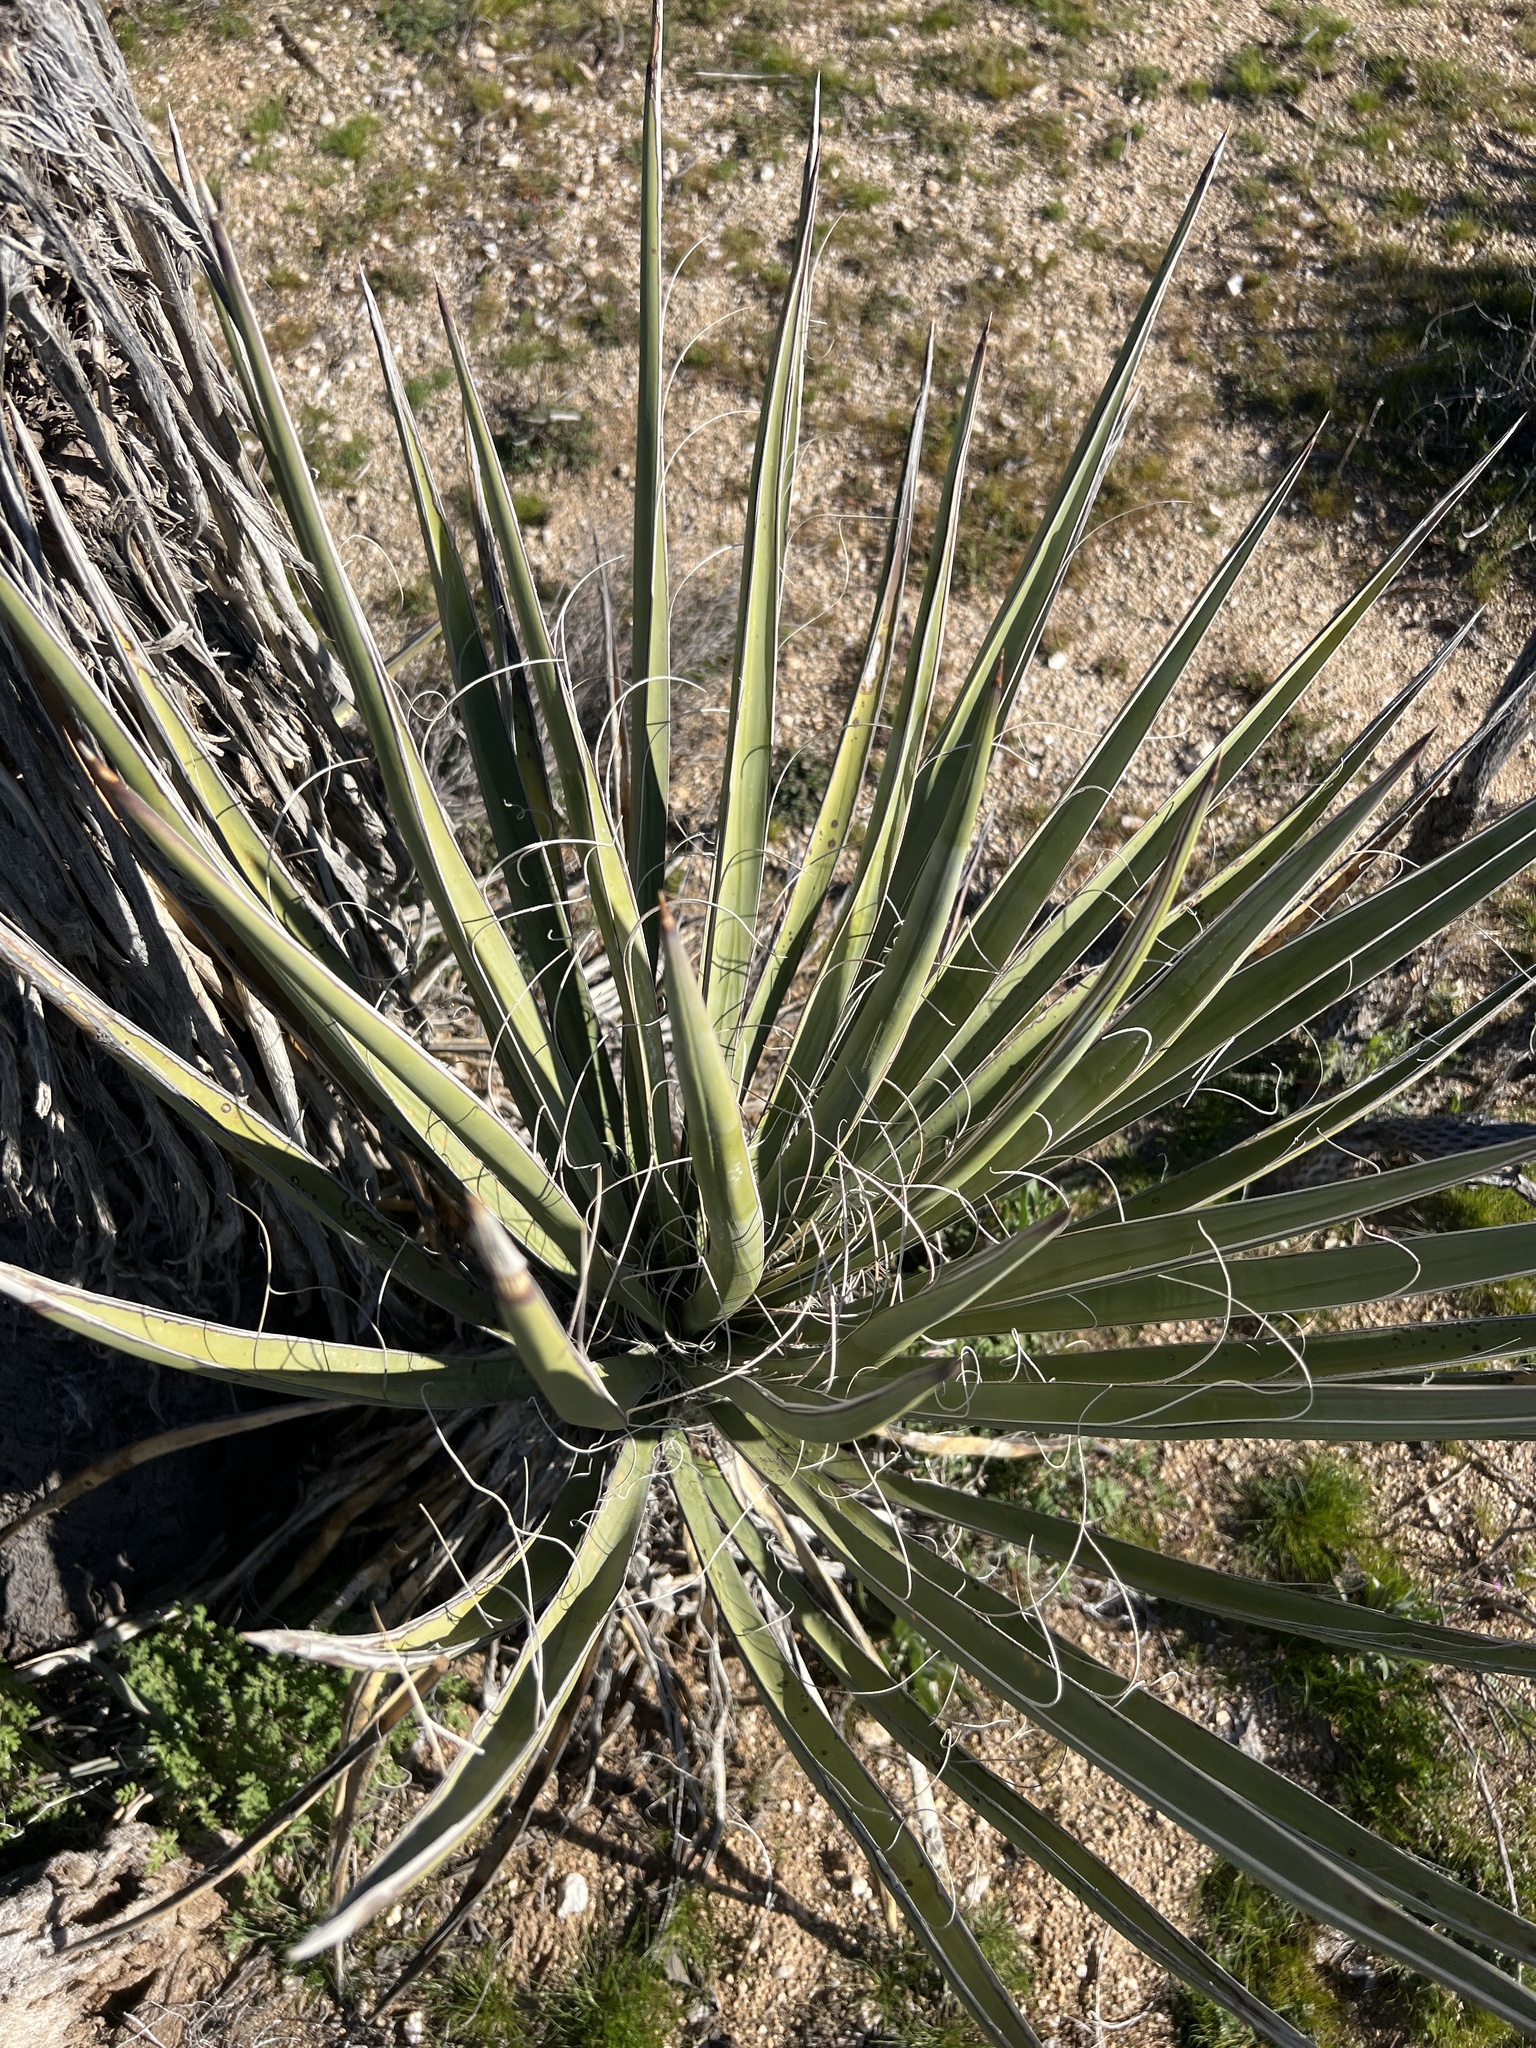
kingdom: Plantae
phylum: Tracheophyta
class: Liliopsida
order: Asparagales
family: Asparagaceae
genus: Yucca
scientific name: Yucca schidigera
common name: Mojave yucca
